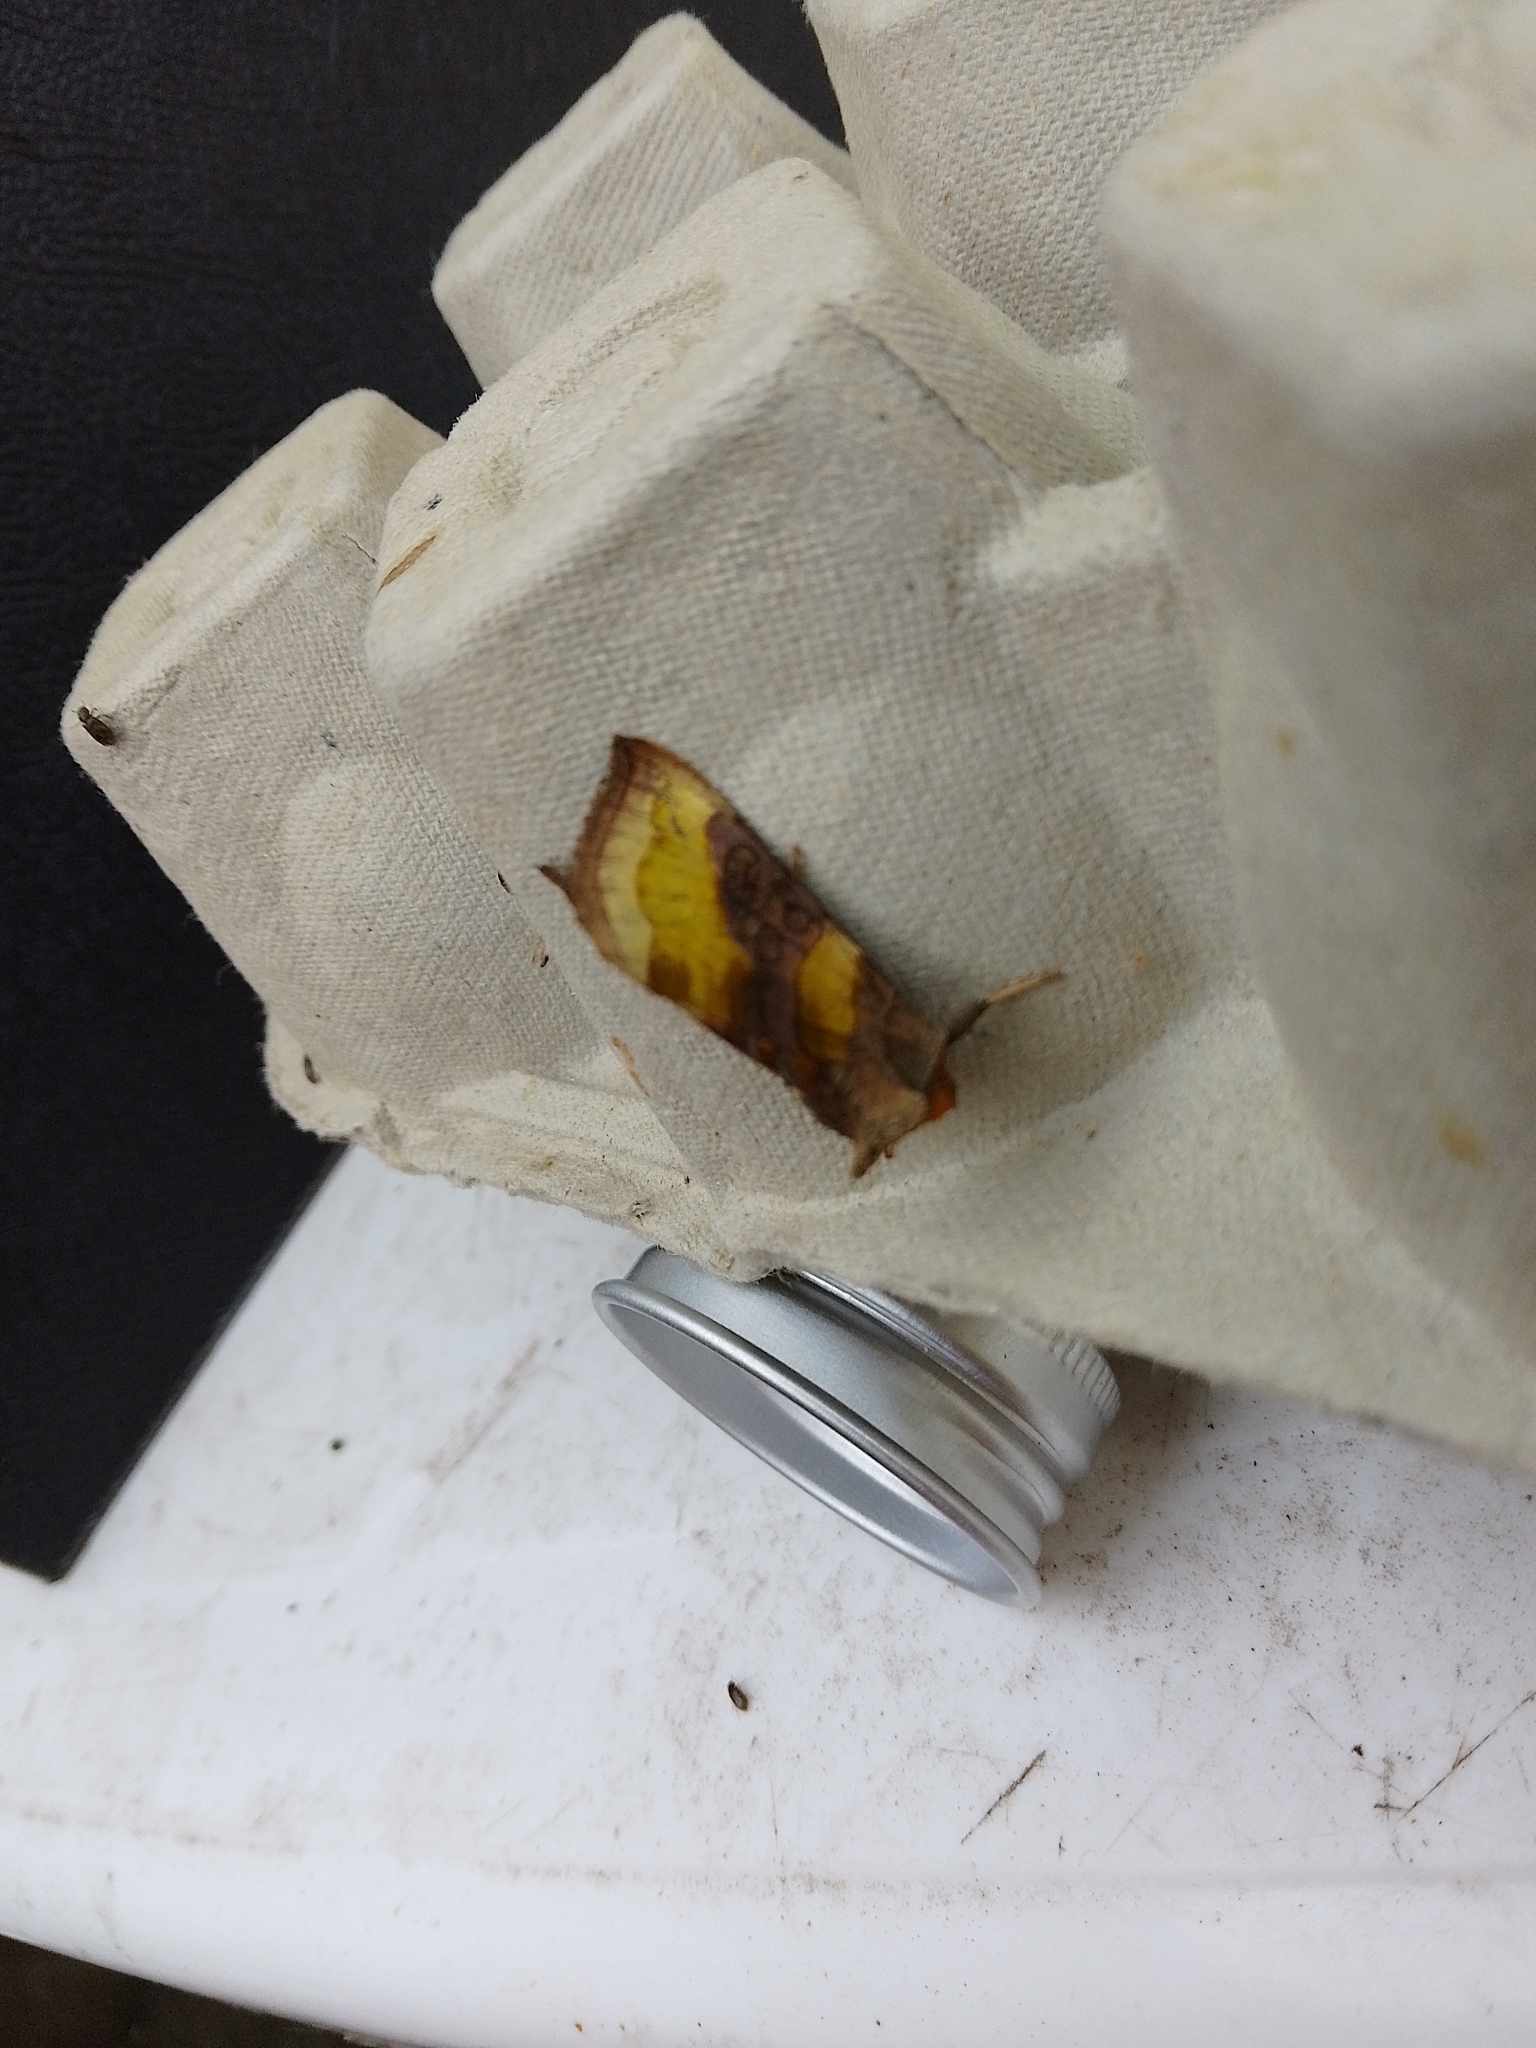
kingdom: Animalia
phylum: Arthropoda
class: Insecta
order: Lepidoptera
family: Noctuidae
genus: Diachrysia
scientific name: Diachrysia chrysitis
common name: Burnished brass
